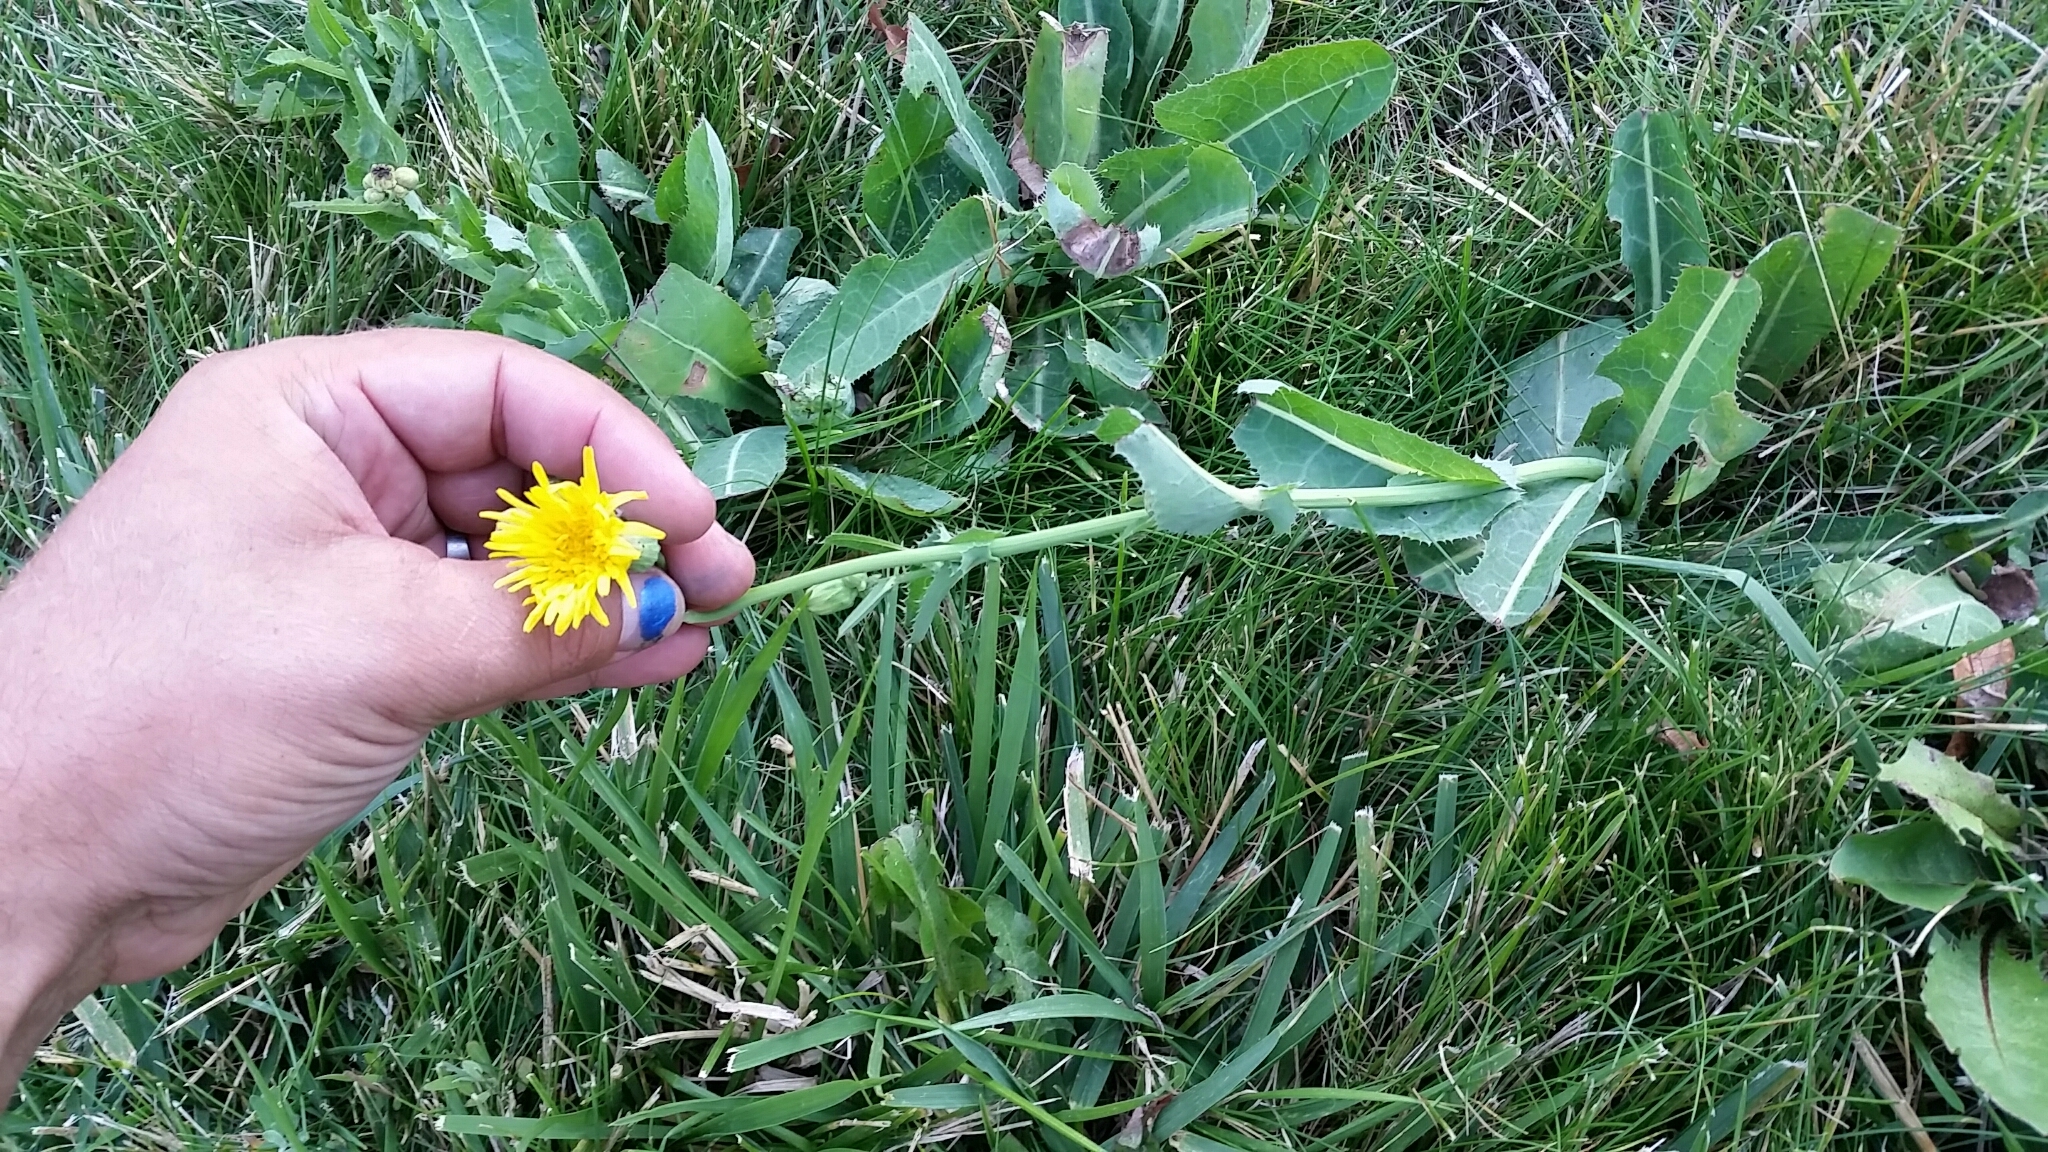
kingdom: Plantae
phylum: Tracheophyta
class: Magnoliopsida
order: Asterales
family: Asteraceae
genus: Sonchus
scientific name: Sonchus arvensis
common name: Perennial sow-thistle
